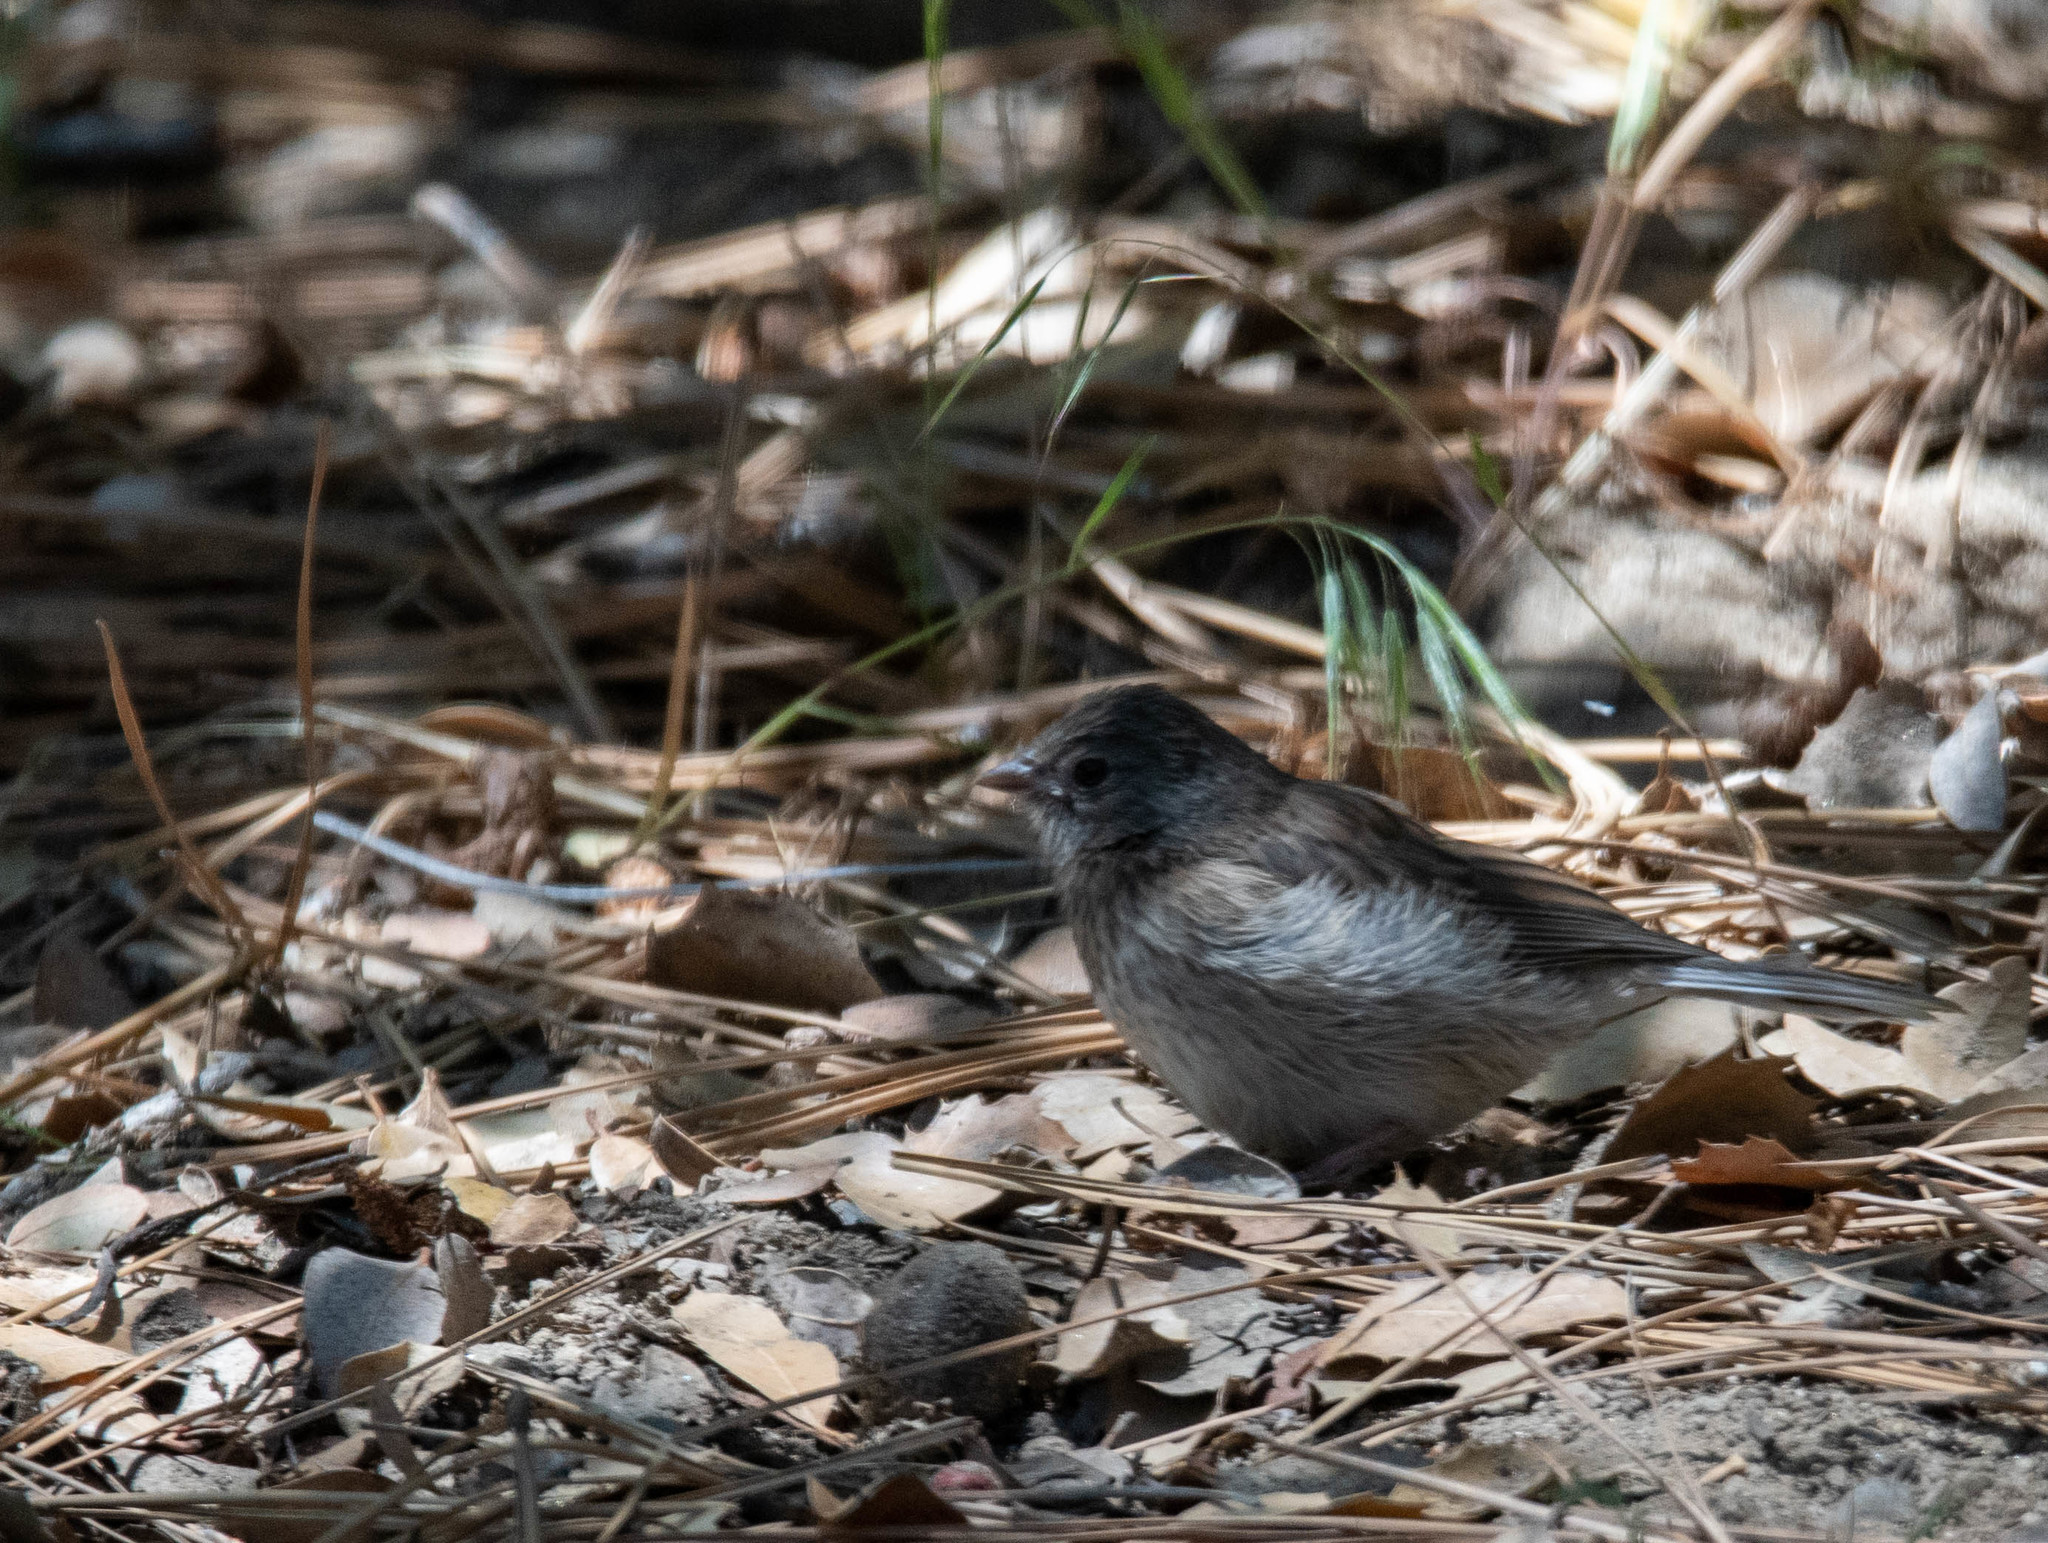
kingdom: Animalia
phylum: Chordata
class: Aves
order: Passeriformes
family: Passerellidae
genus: Junco
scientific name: Junco hyemalis
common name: Dark-eyed junco
